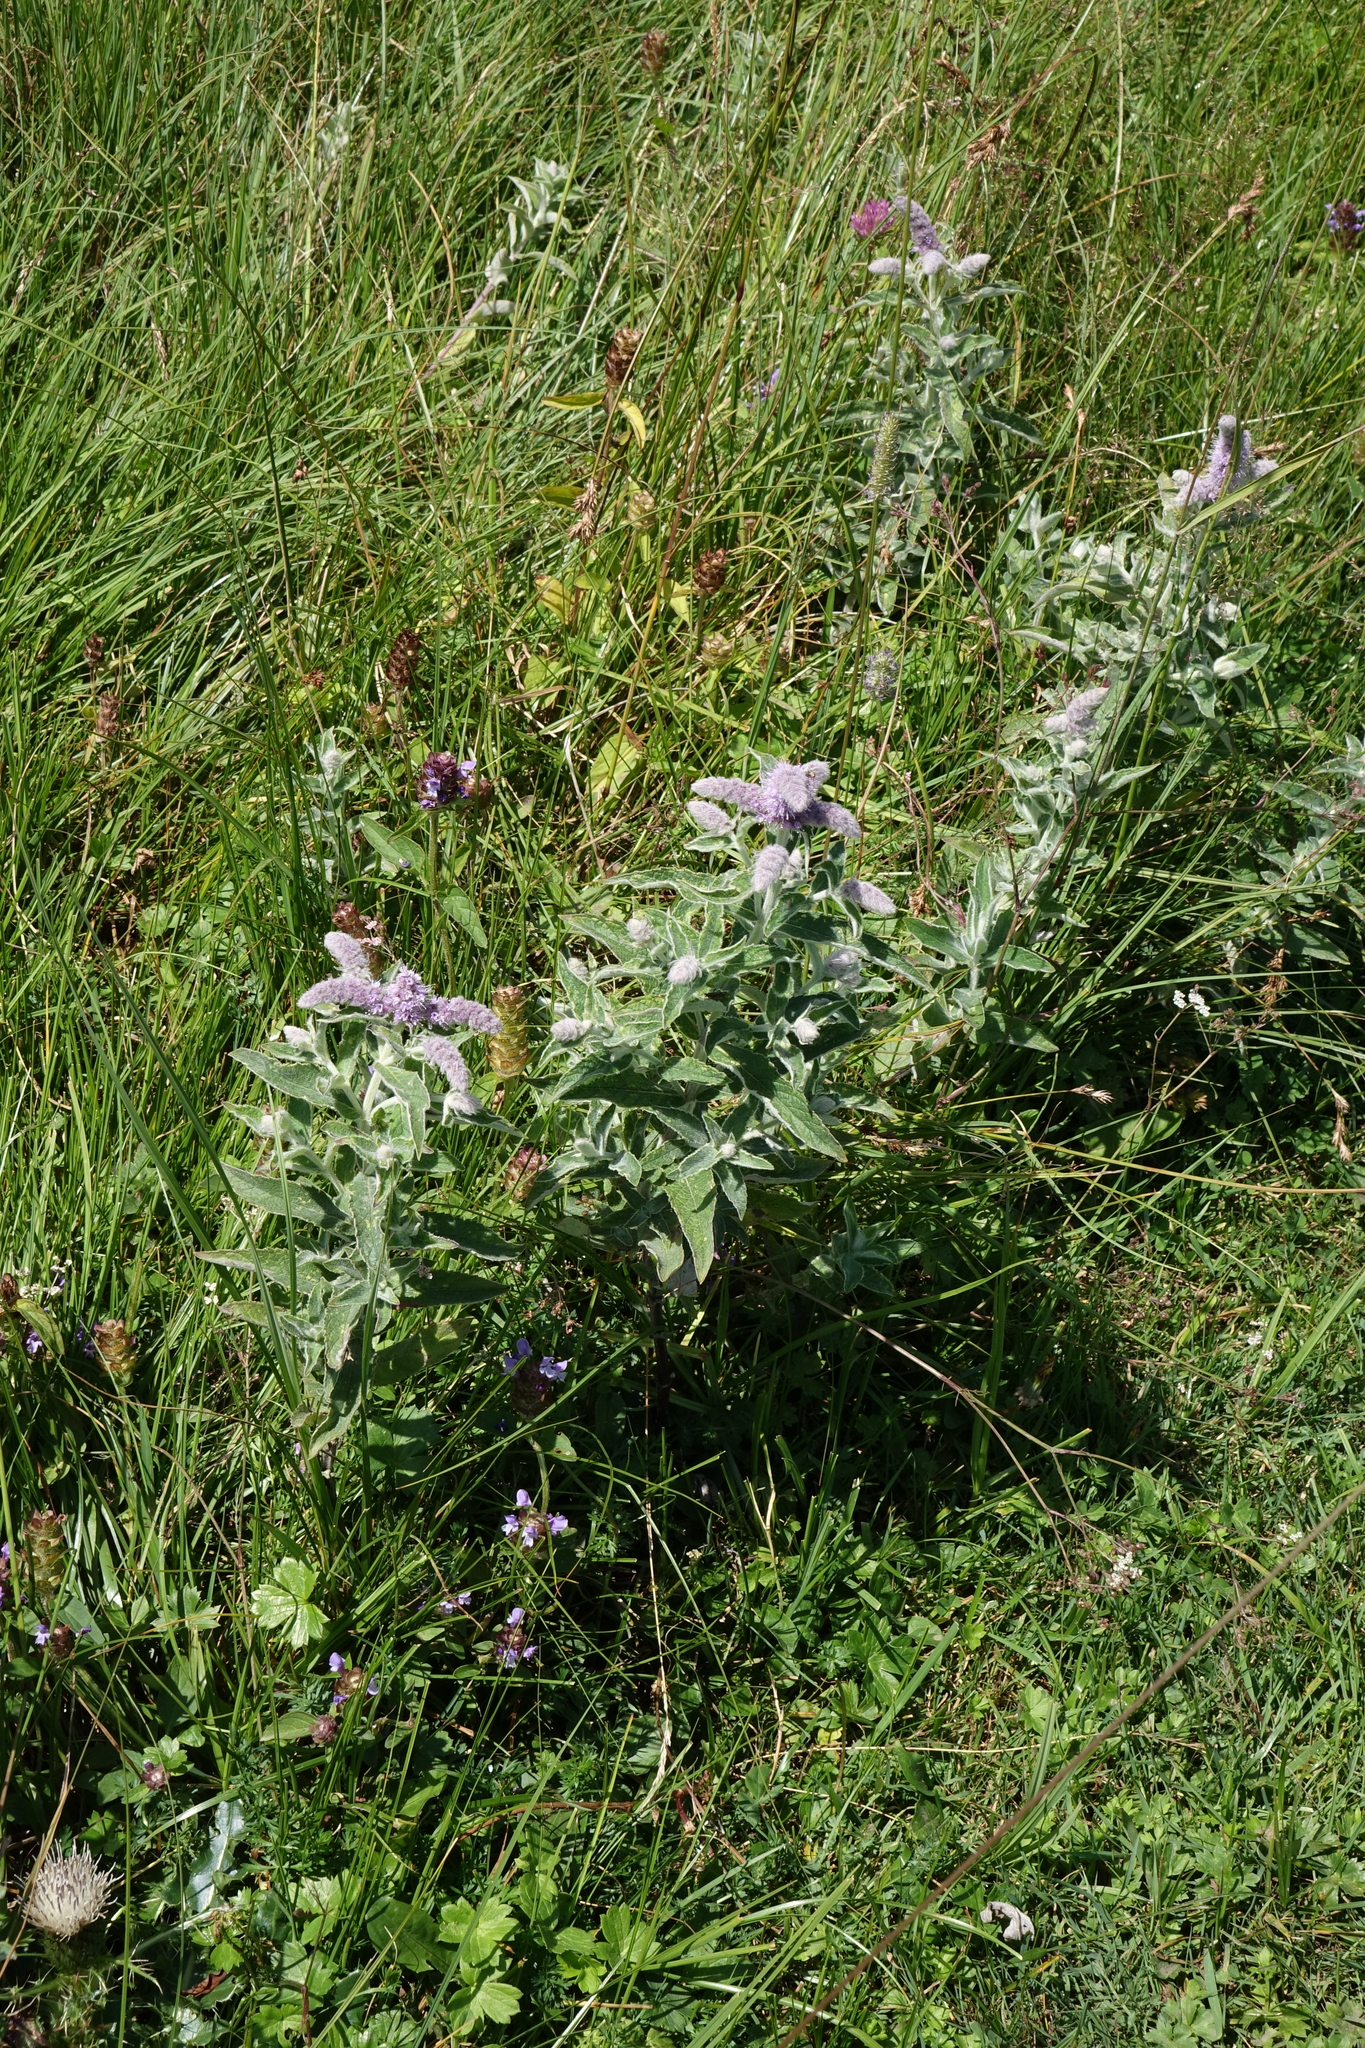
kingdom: Plantae
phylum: Tracheophyta
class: Magnoliopsida
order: Lamiales
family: Lamiaceae
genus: Mentha
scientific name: Mentha longifolia
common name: Horse mint
